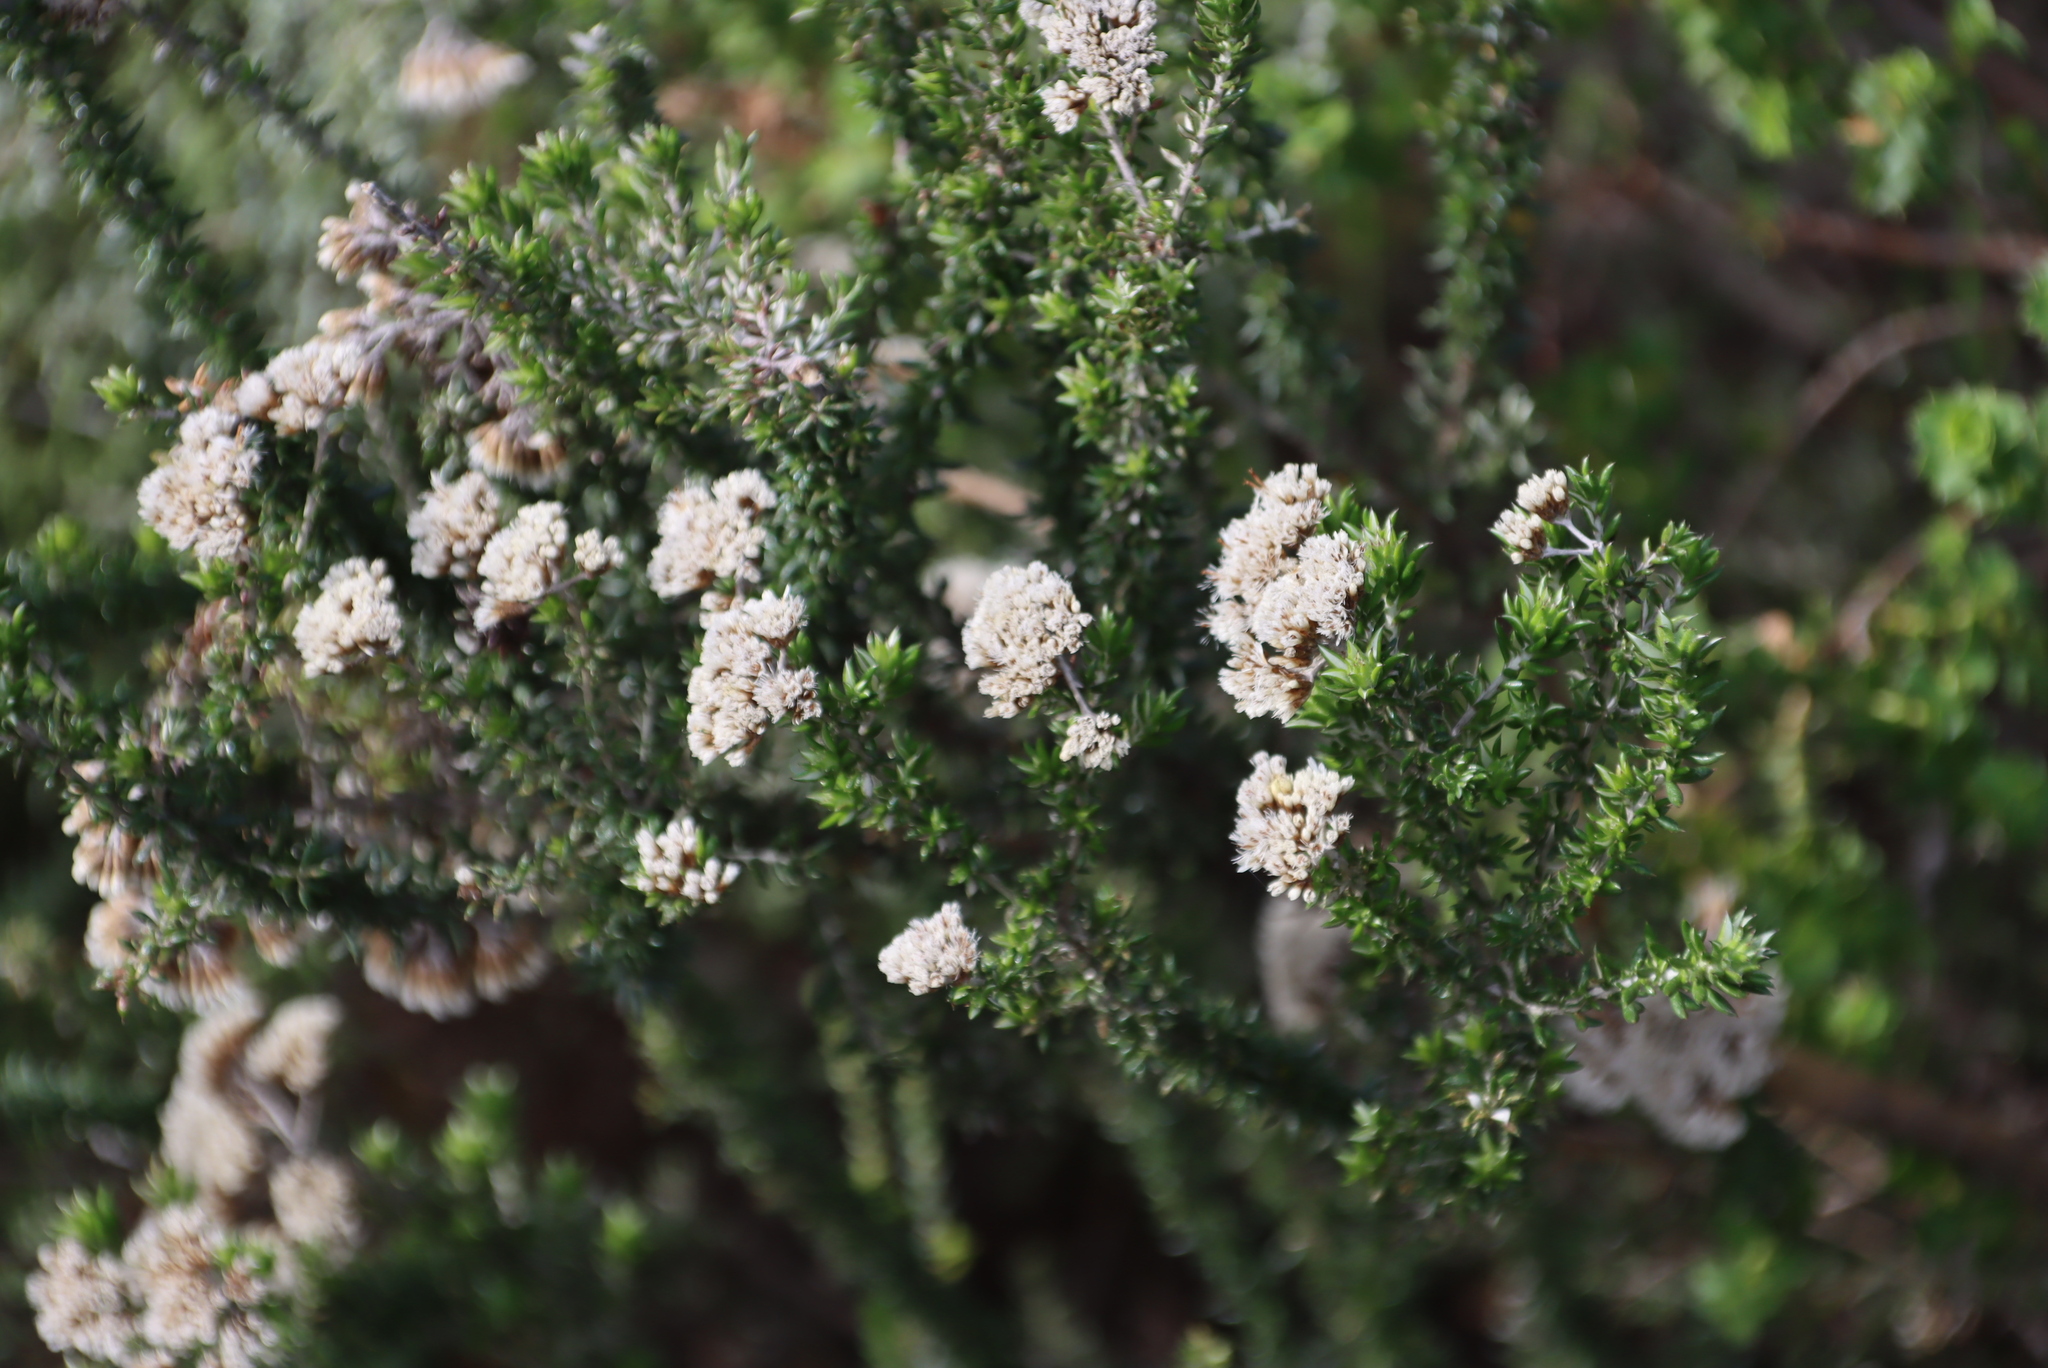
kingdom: Plantae
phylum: Tracheophyta
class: Magnoliopsida
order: Asterales
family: Asteraceae
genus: Metalasia
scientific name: Metalasia densa
